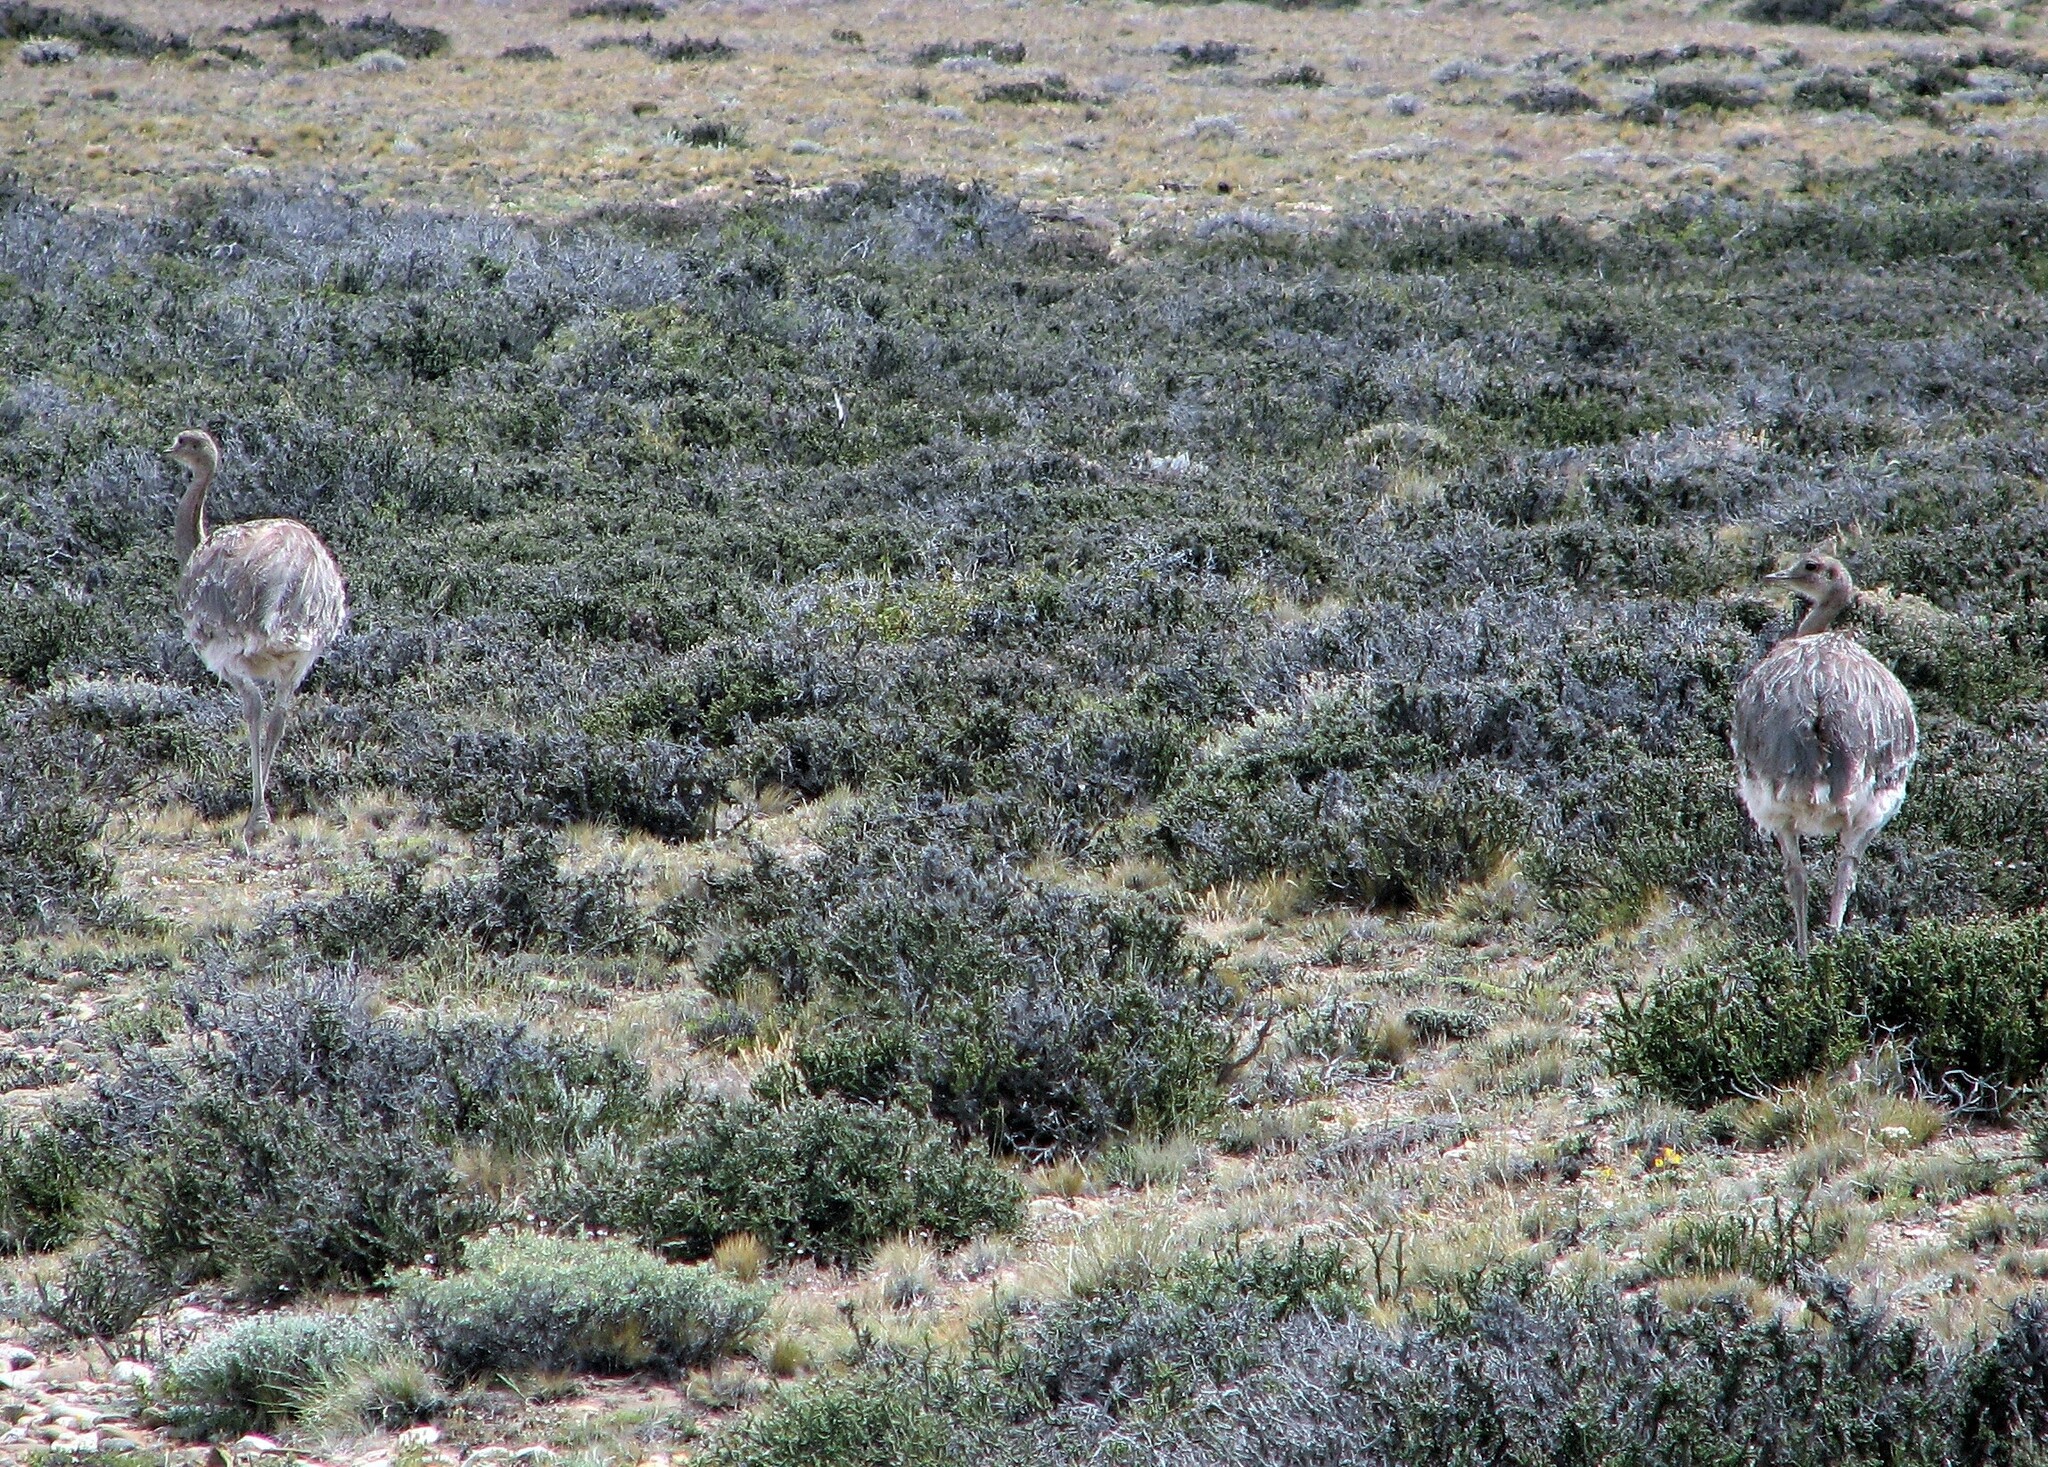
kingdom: Animalia
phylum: Chordata
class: Aves
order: Rheiformes
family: Rheidae
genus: Rhea
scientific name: Rhea pennata
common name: Lesser rhea
